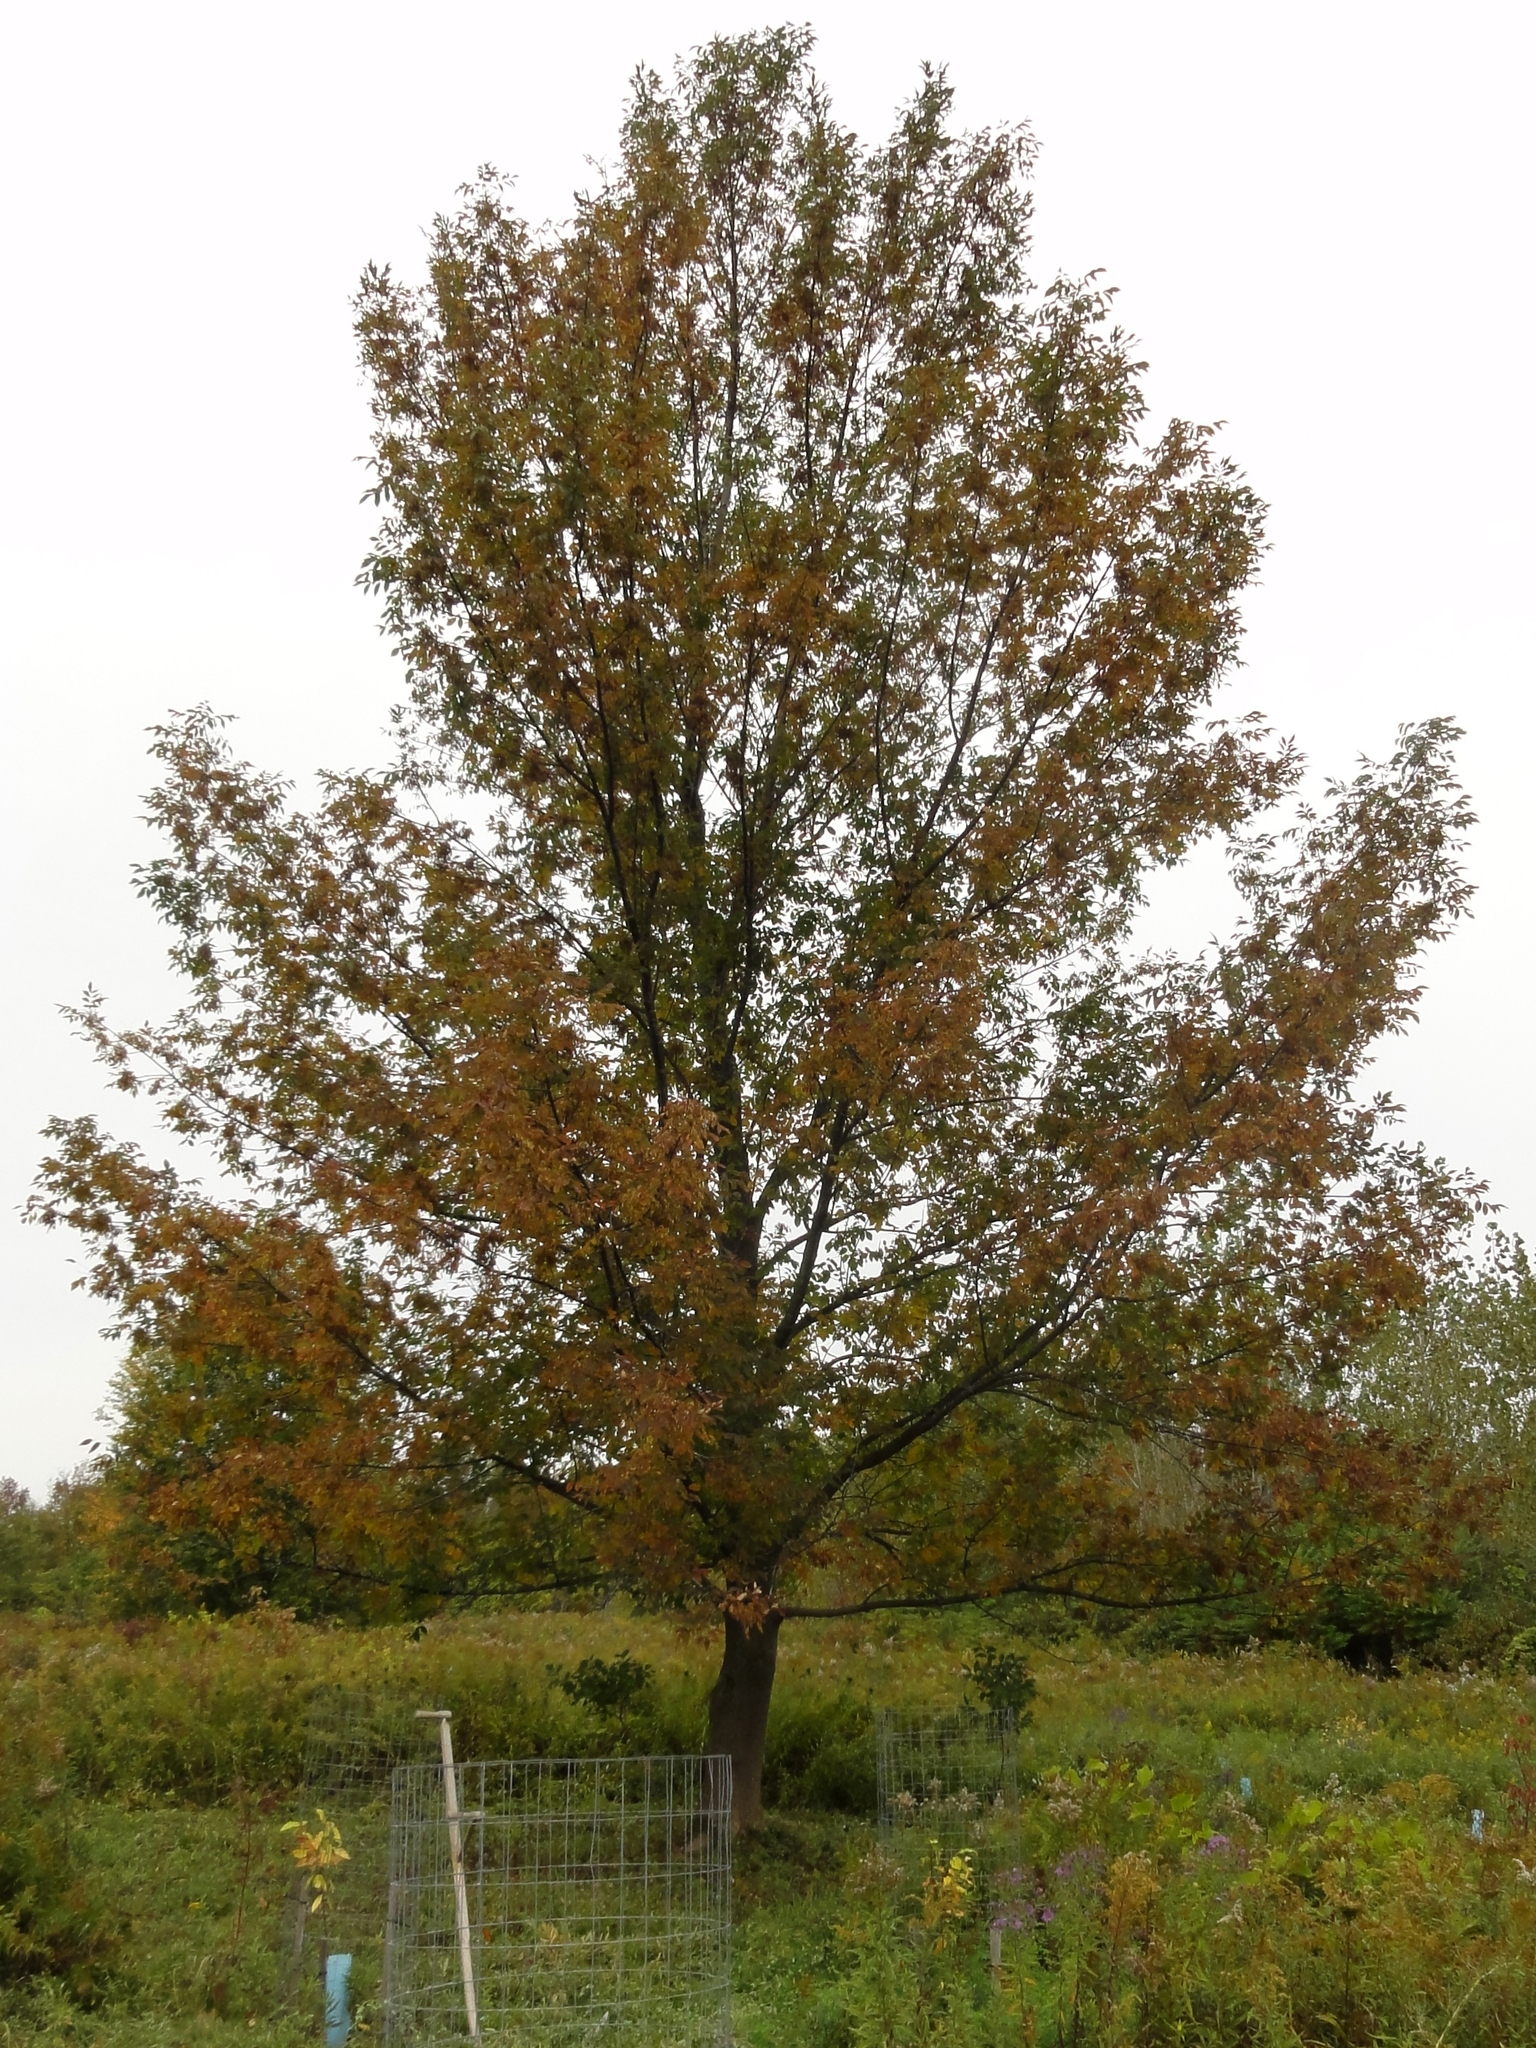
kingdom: Plantae
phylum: Tracheophyta
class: Magnoliopsida
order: Lamiales
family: Oleaceae
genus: Fraxinus
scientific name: Fraxinus americana
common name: White ash
